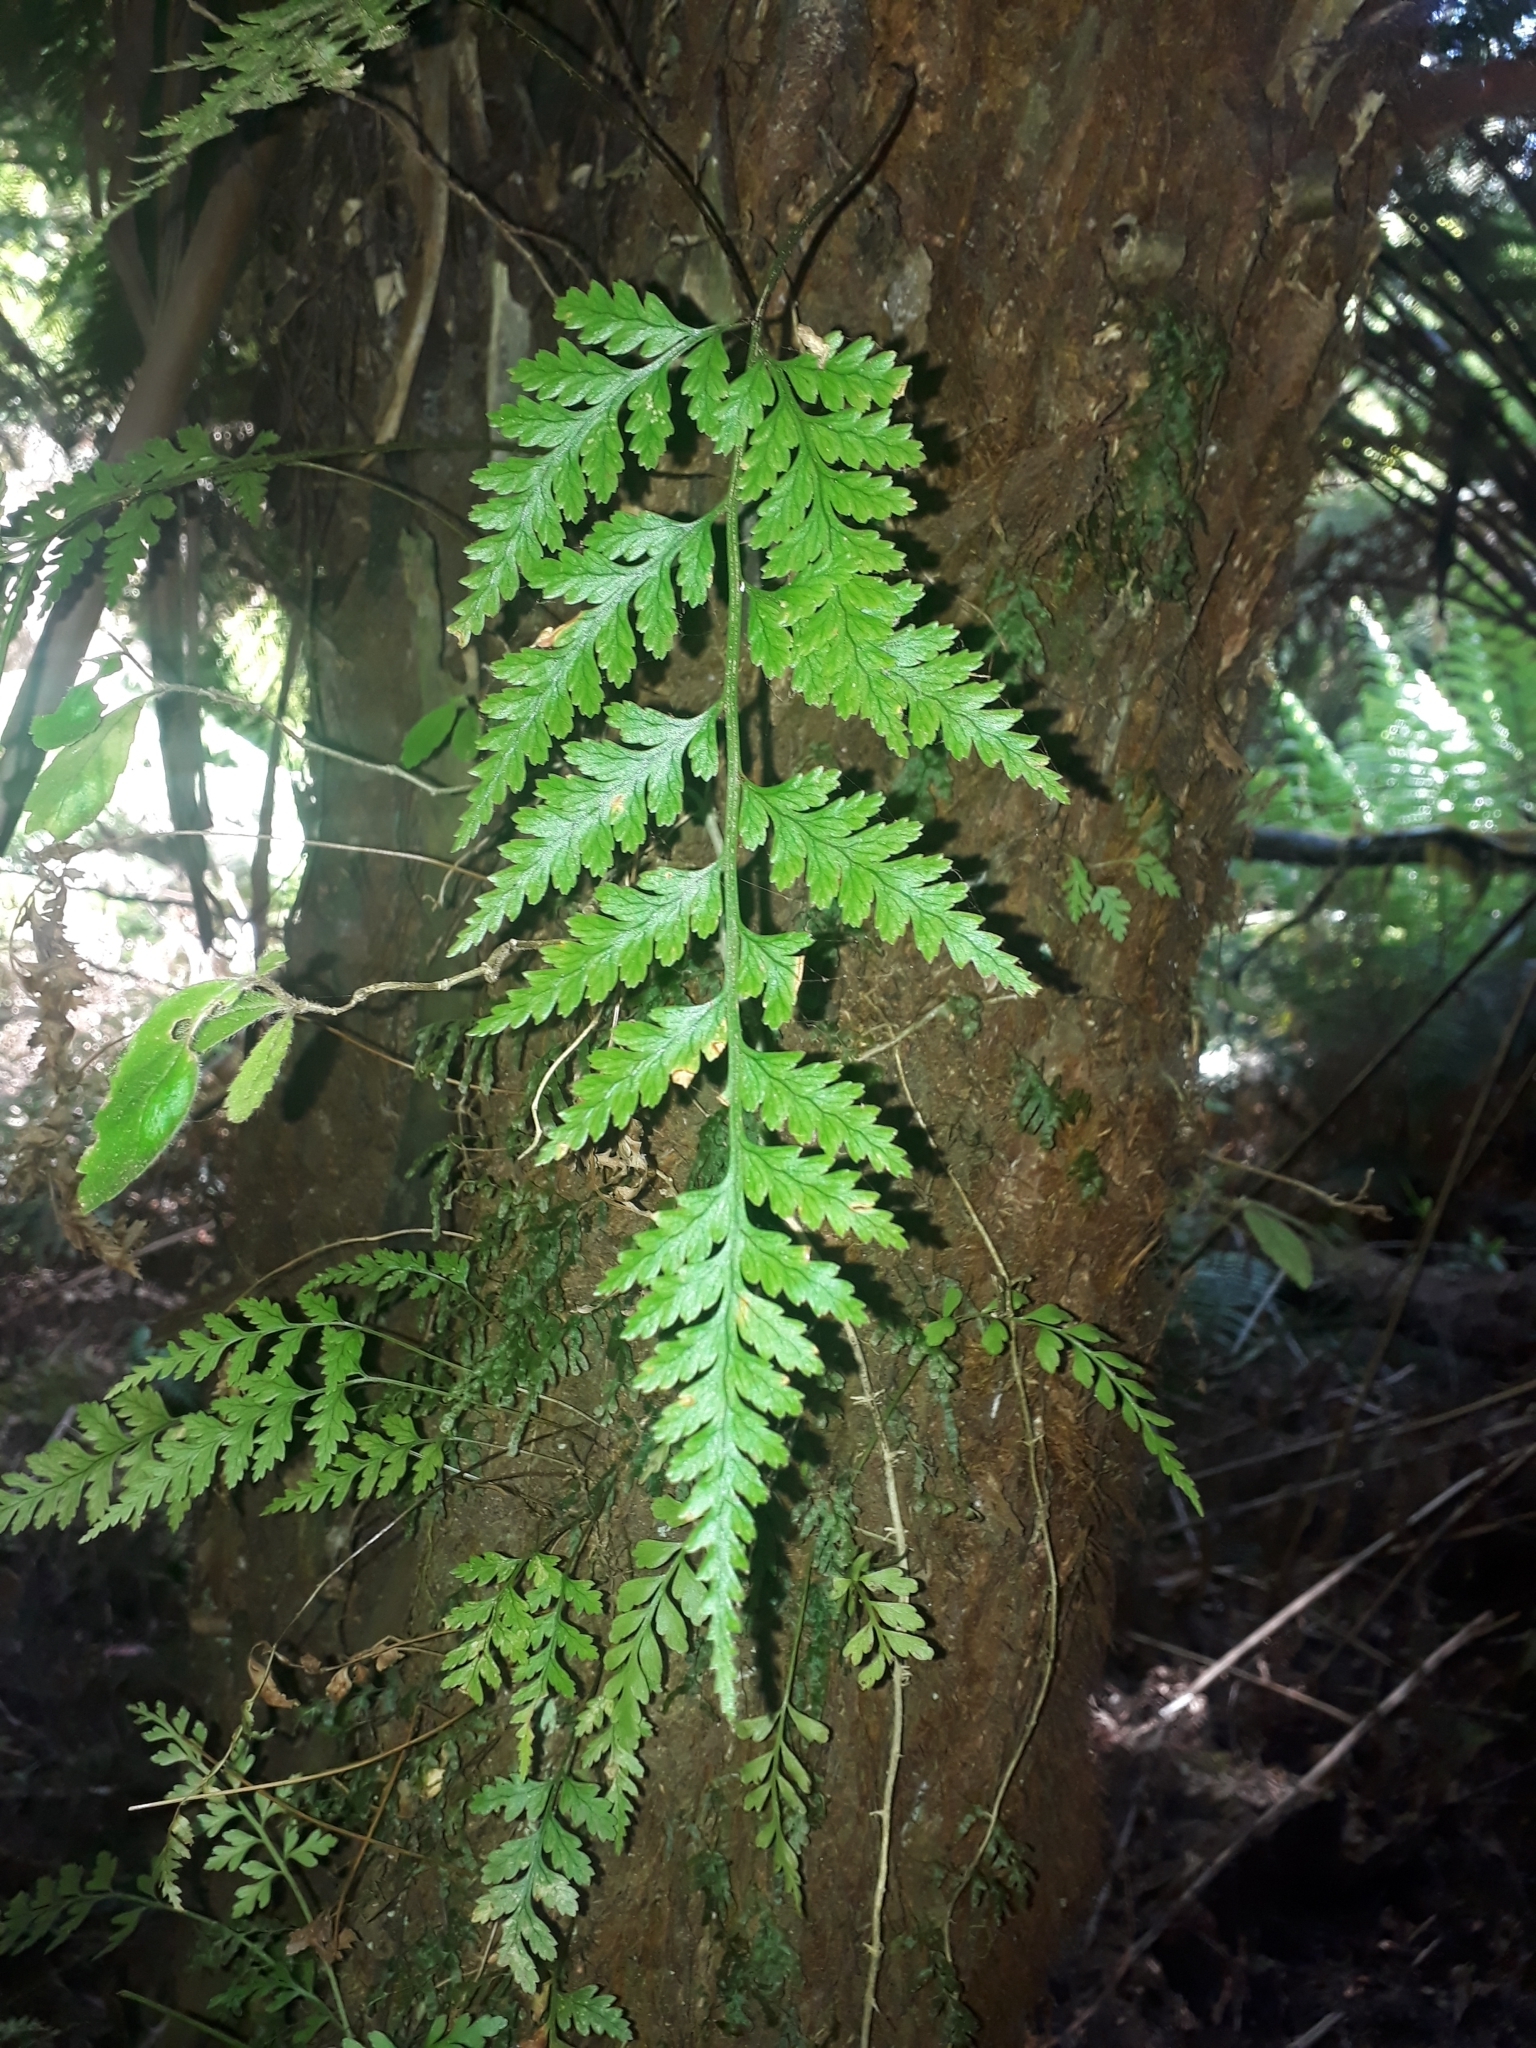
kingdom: Plantae
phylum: Tracheophyta
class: Polypodiopsida
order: Polypodiales
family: Dryopteridaceae
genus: Rumohra
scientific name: Rumohra adiantiformis
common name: Leather fern
